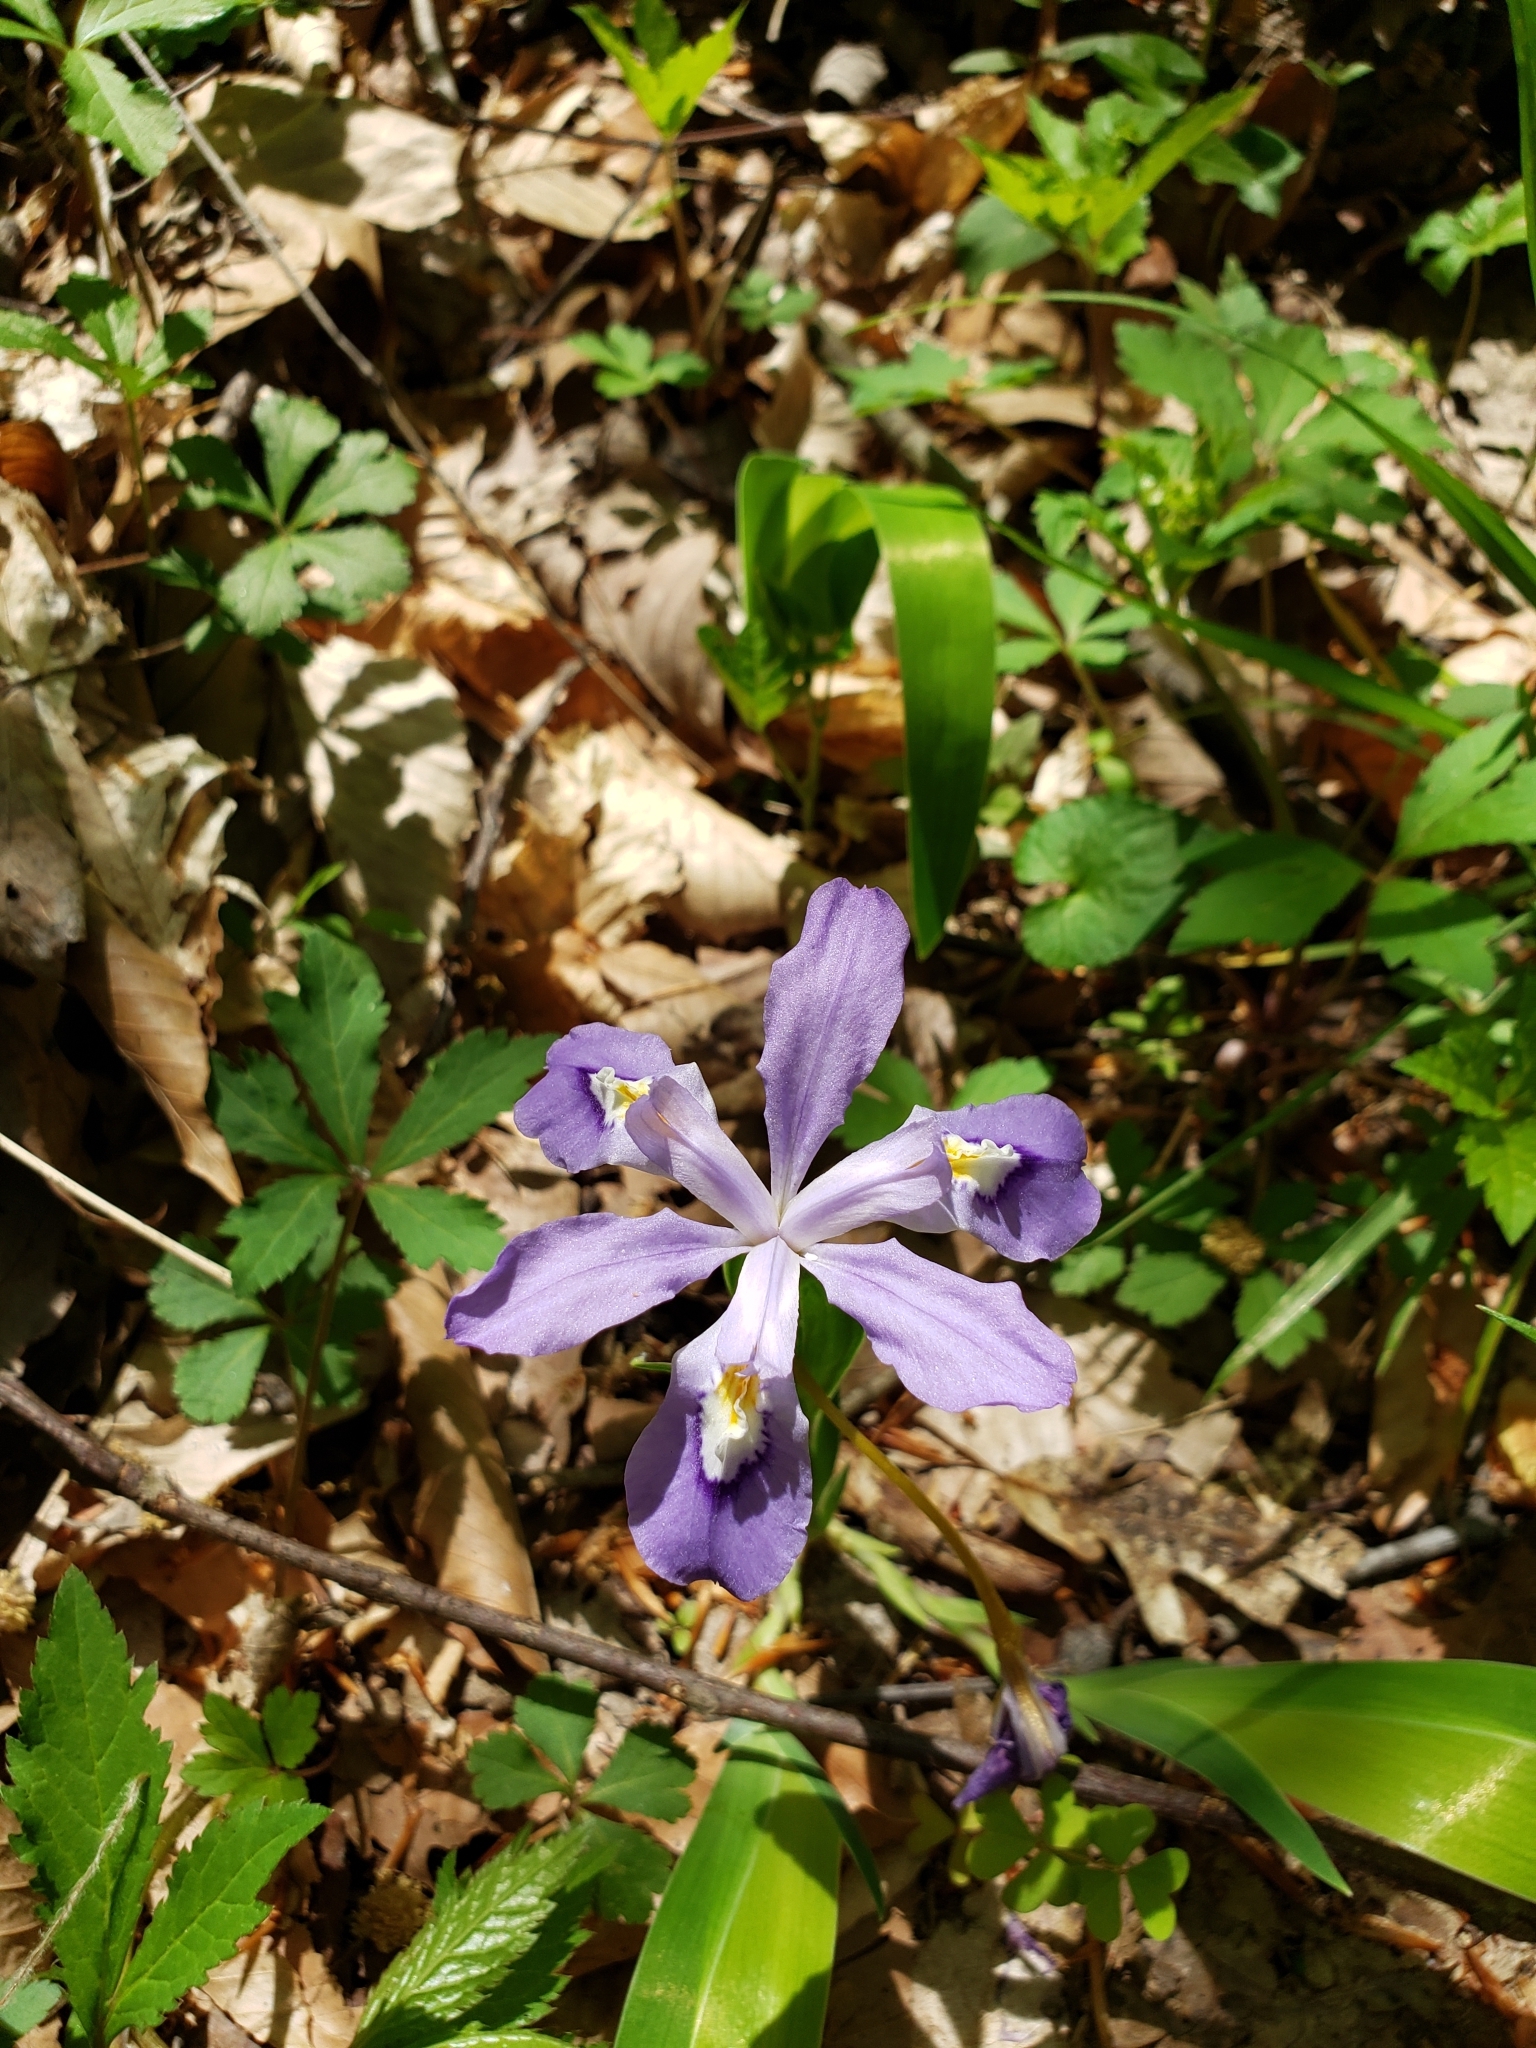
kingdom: Plantae
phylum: Tracheophyta
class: Liliopsida
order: Asparagales
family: Iridaceae
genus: Iris
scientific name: Iris cristata
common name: Crested iris
